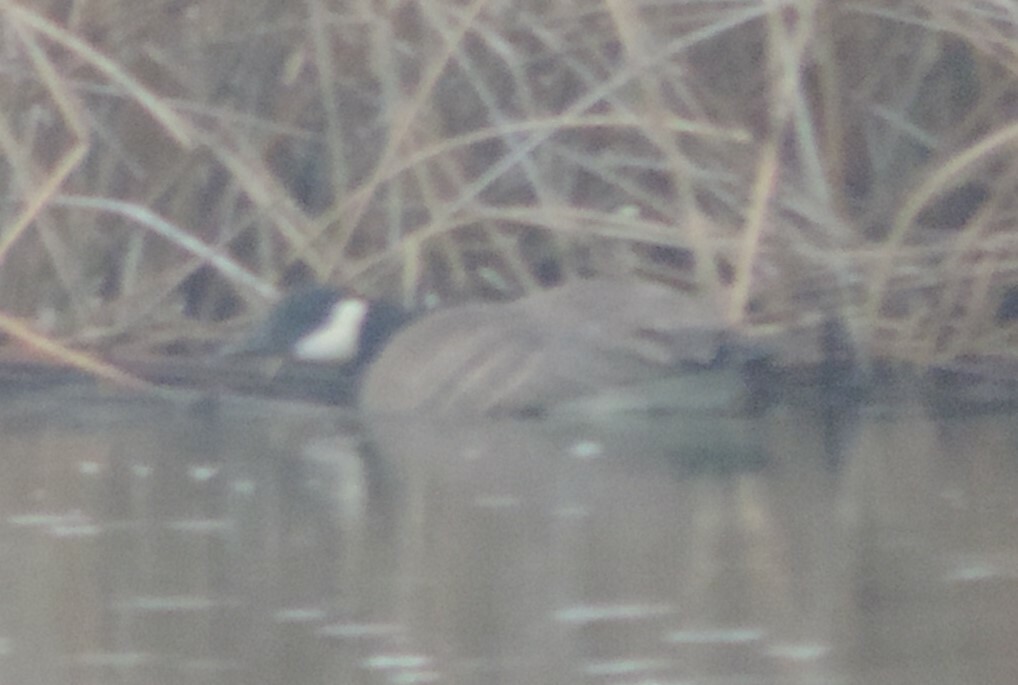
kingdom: Animalia
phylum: Chordata
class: Aves
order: Anseriformes
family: Anatidae
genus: Branta
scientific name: Branta canadensis
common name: Canada goose
